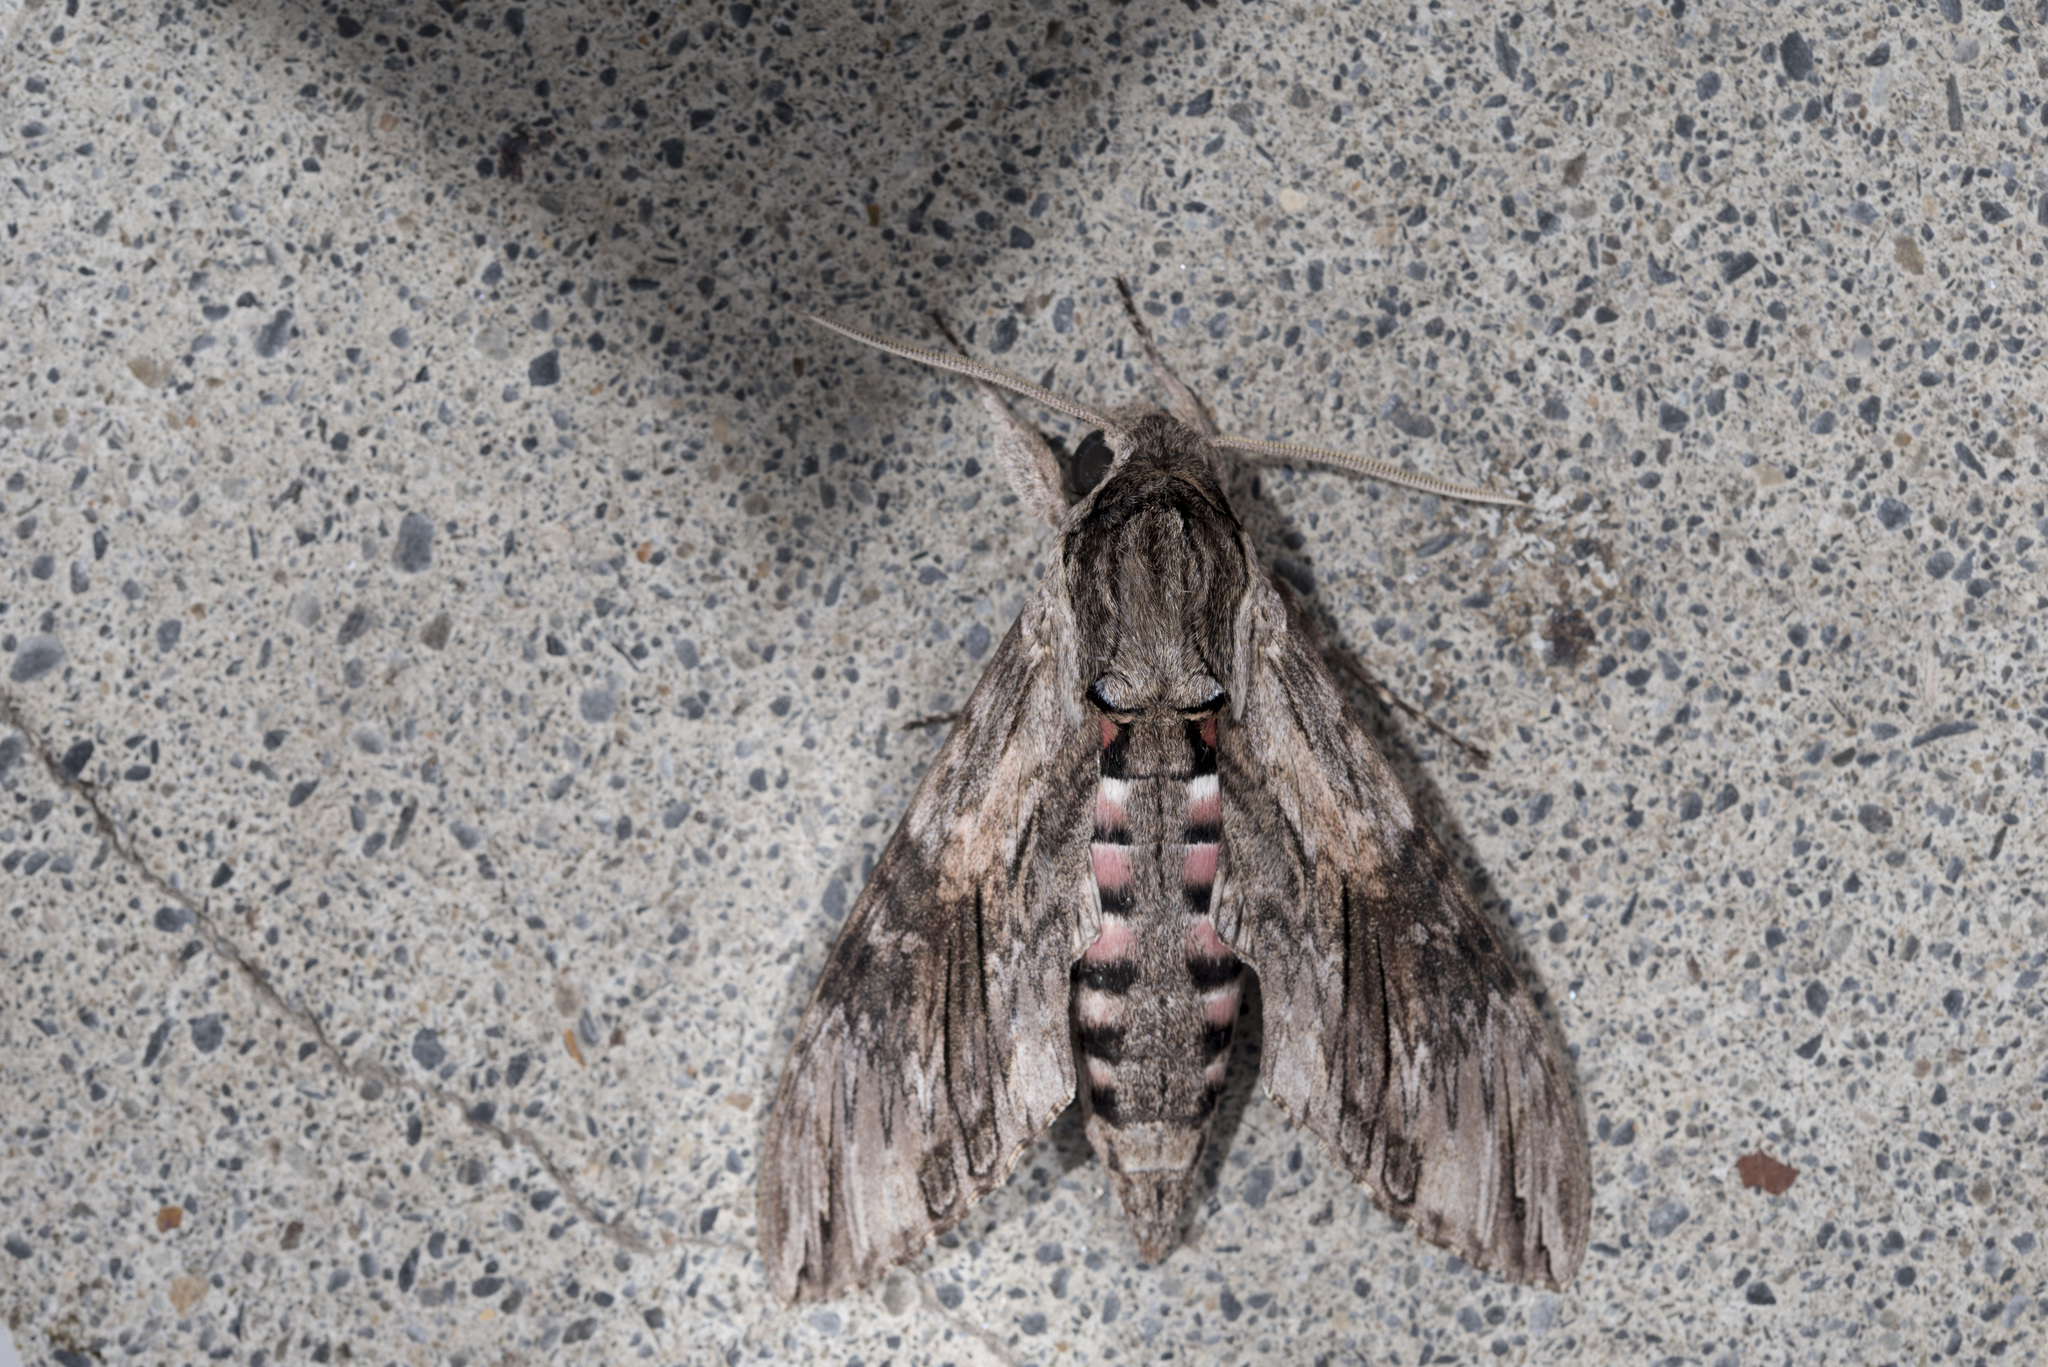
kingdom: Animalia
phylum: Arthropoda
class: Insecta
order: Lepidoptera
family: Sphingidae
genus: Agrius
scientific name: Agrius convolvuli
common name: Convolvulus hawkmoth
